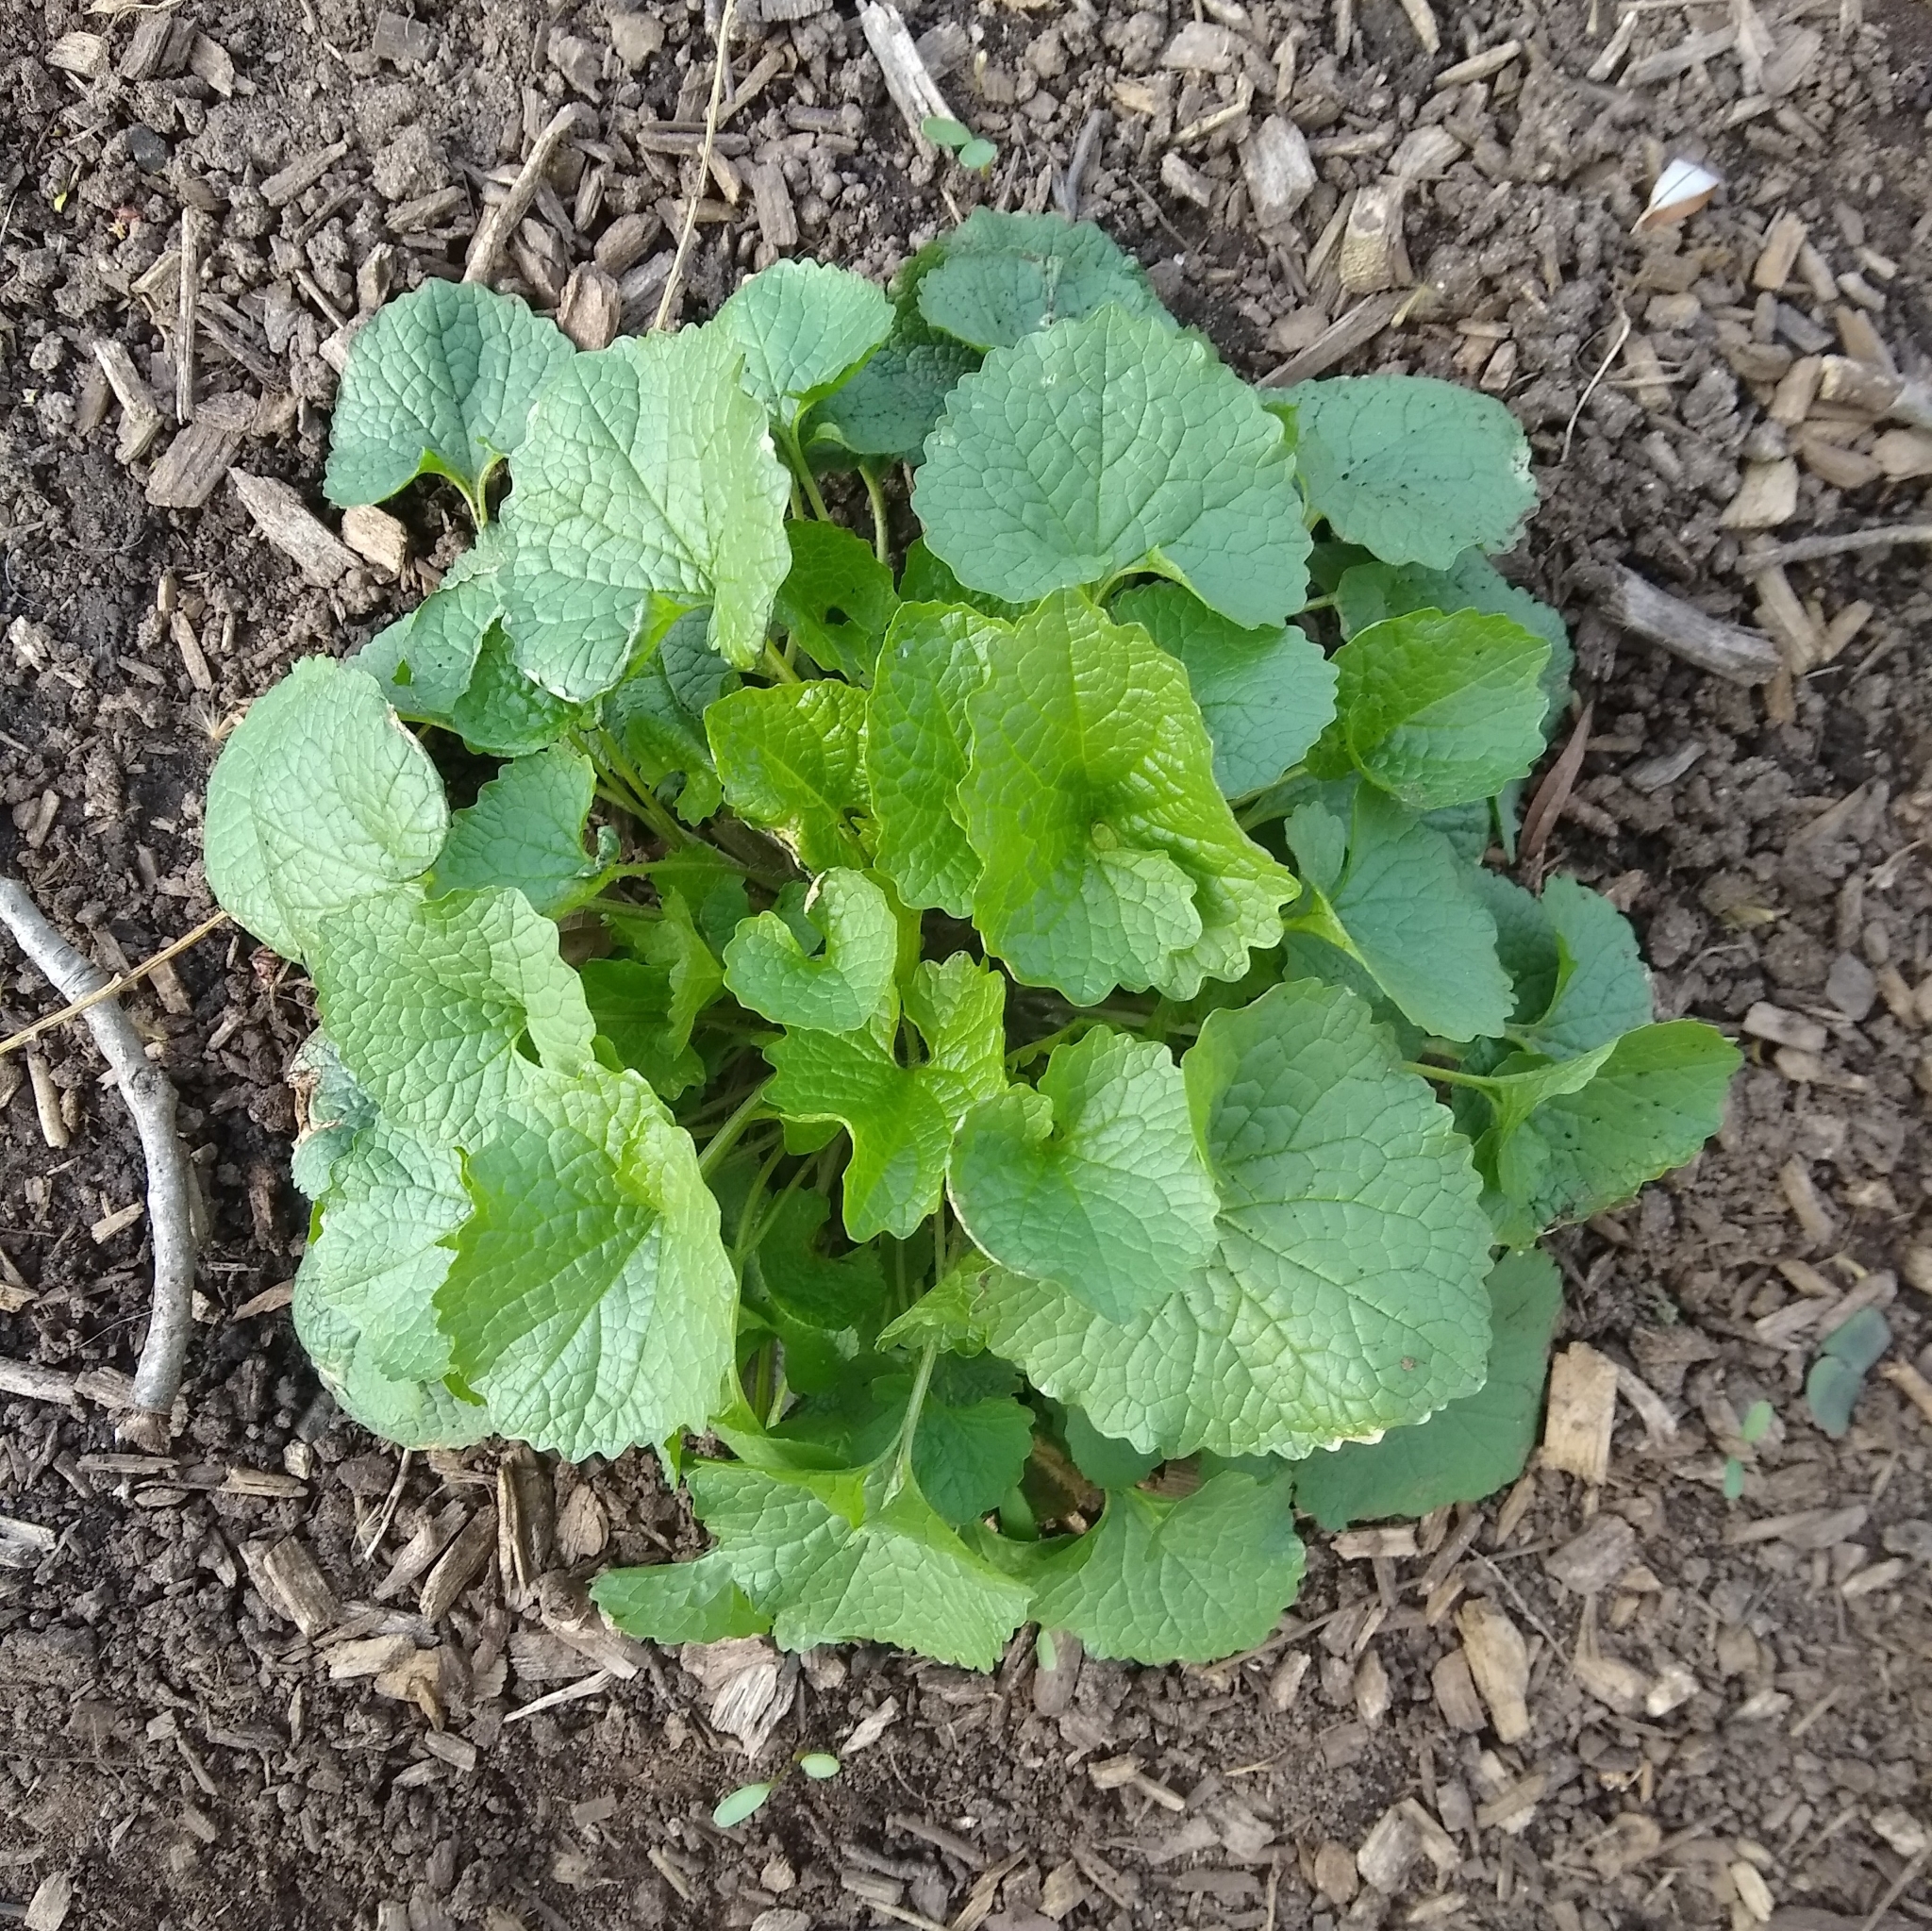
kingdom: Plantae
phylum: Tracheophyta
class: Magnoliopsida
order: Brassicales
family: Brassicaceae
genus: Alliaria
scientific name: Alliaria petiolata
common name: Garlic mustard
